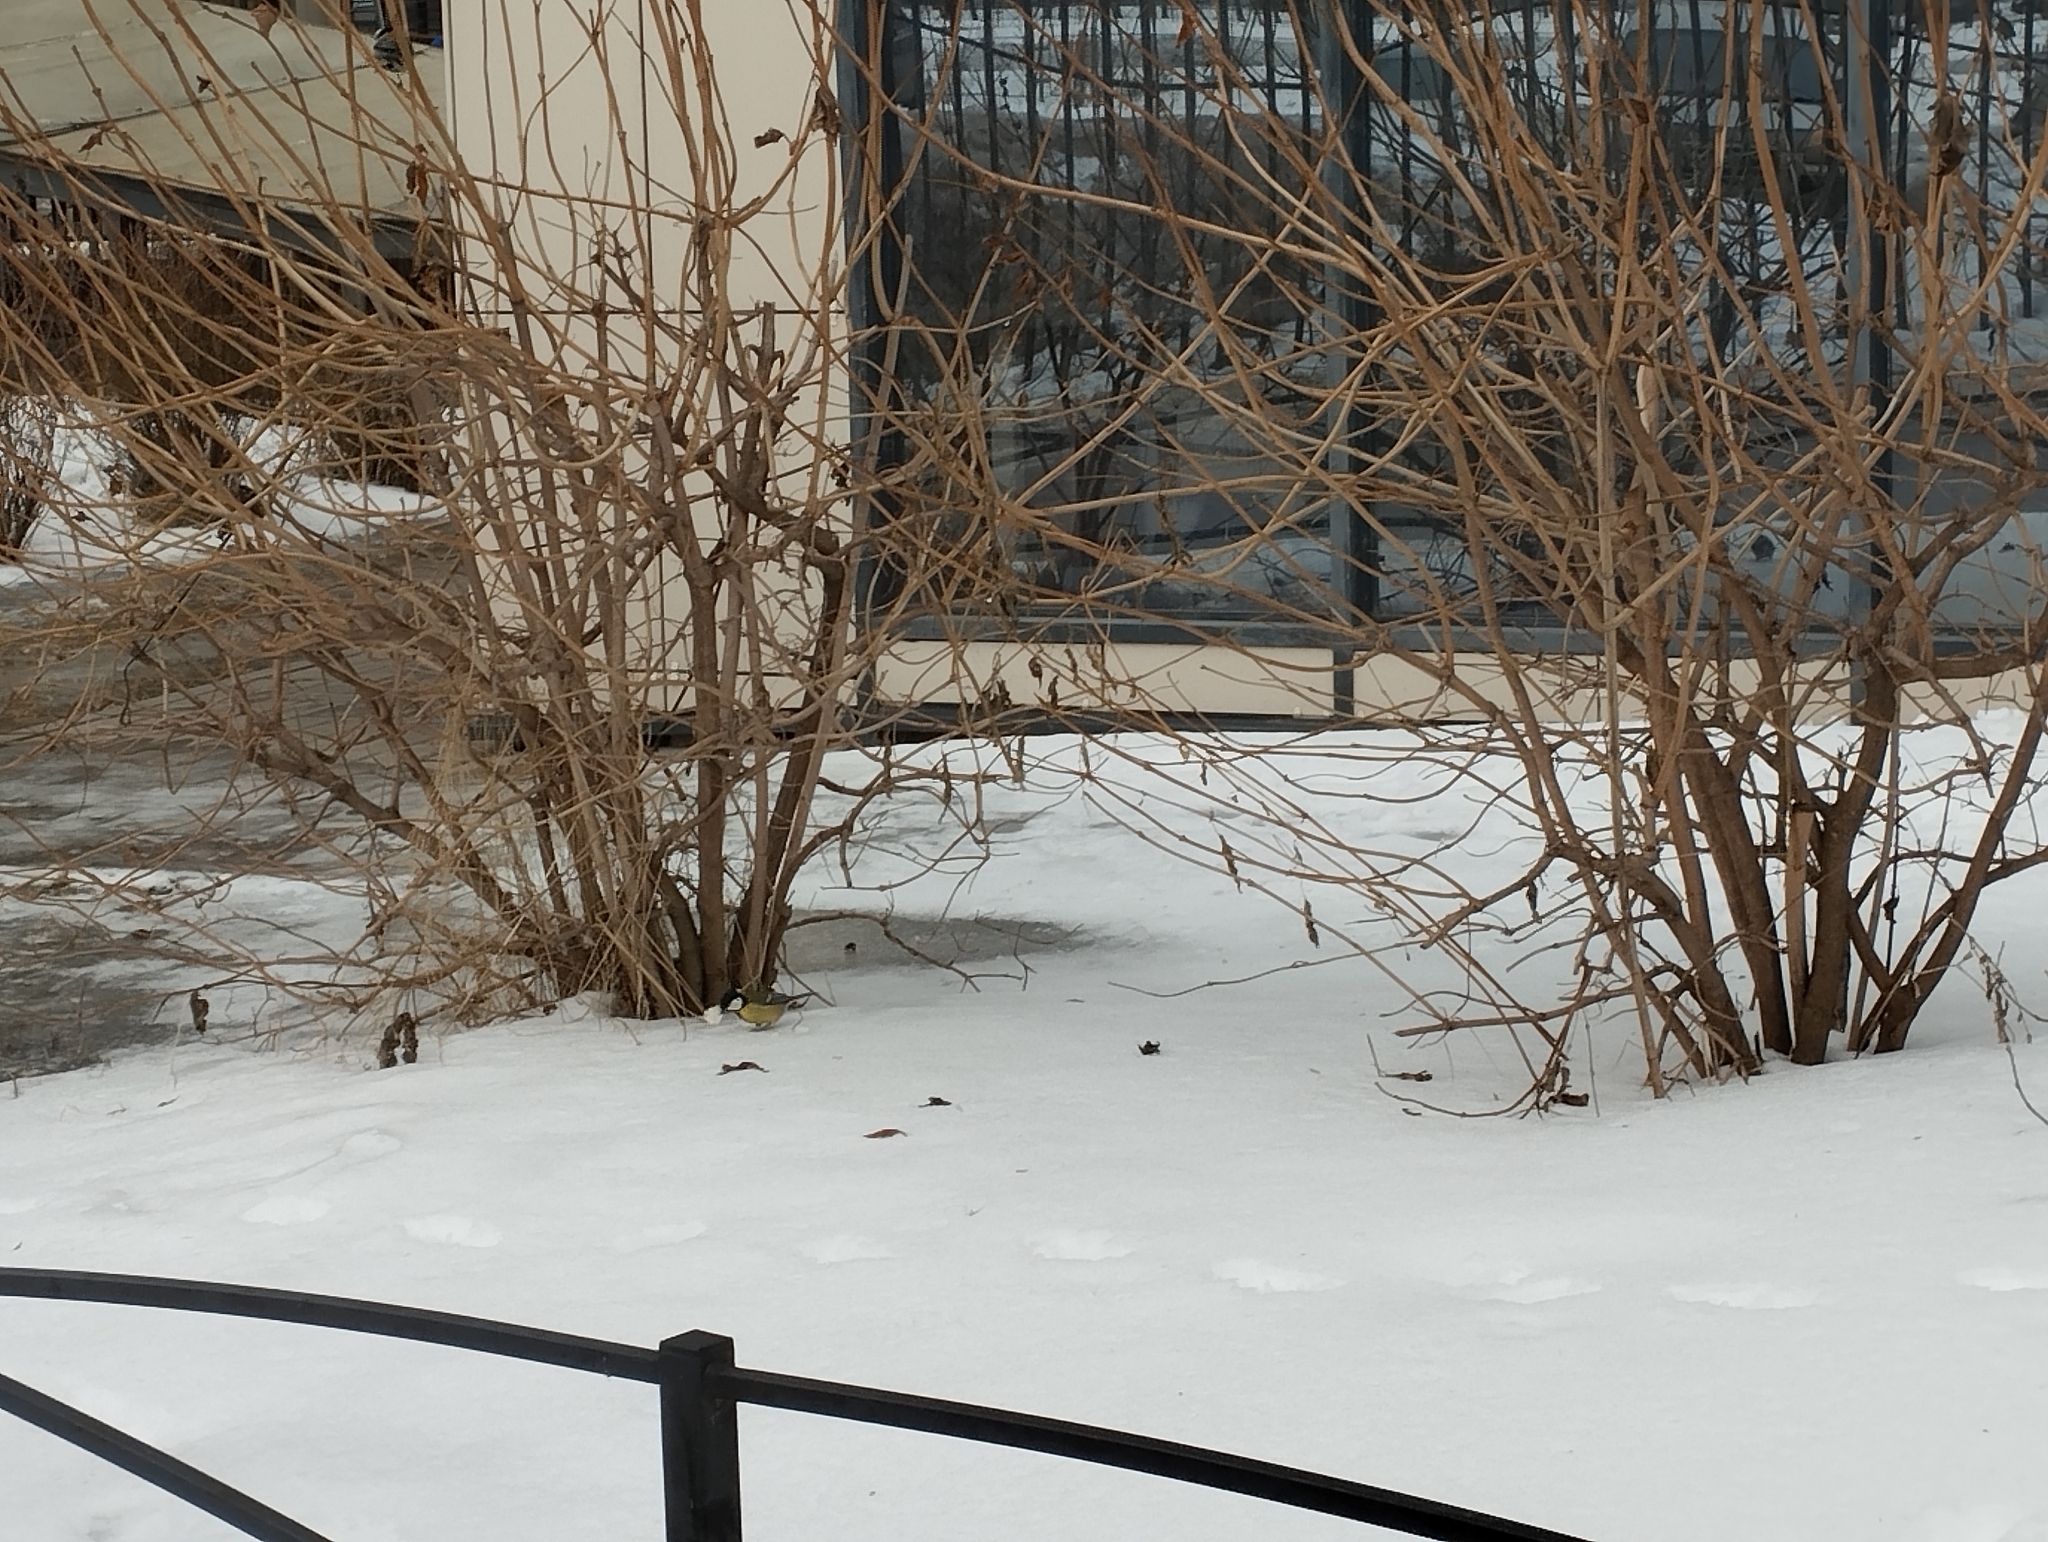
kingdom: Animalia
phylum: Chordata
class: Aves
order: Passeriformes
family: Paridae
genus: Parus
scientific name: Parus major
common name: Great tit
